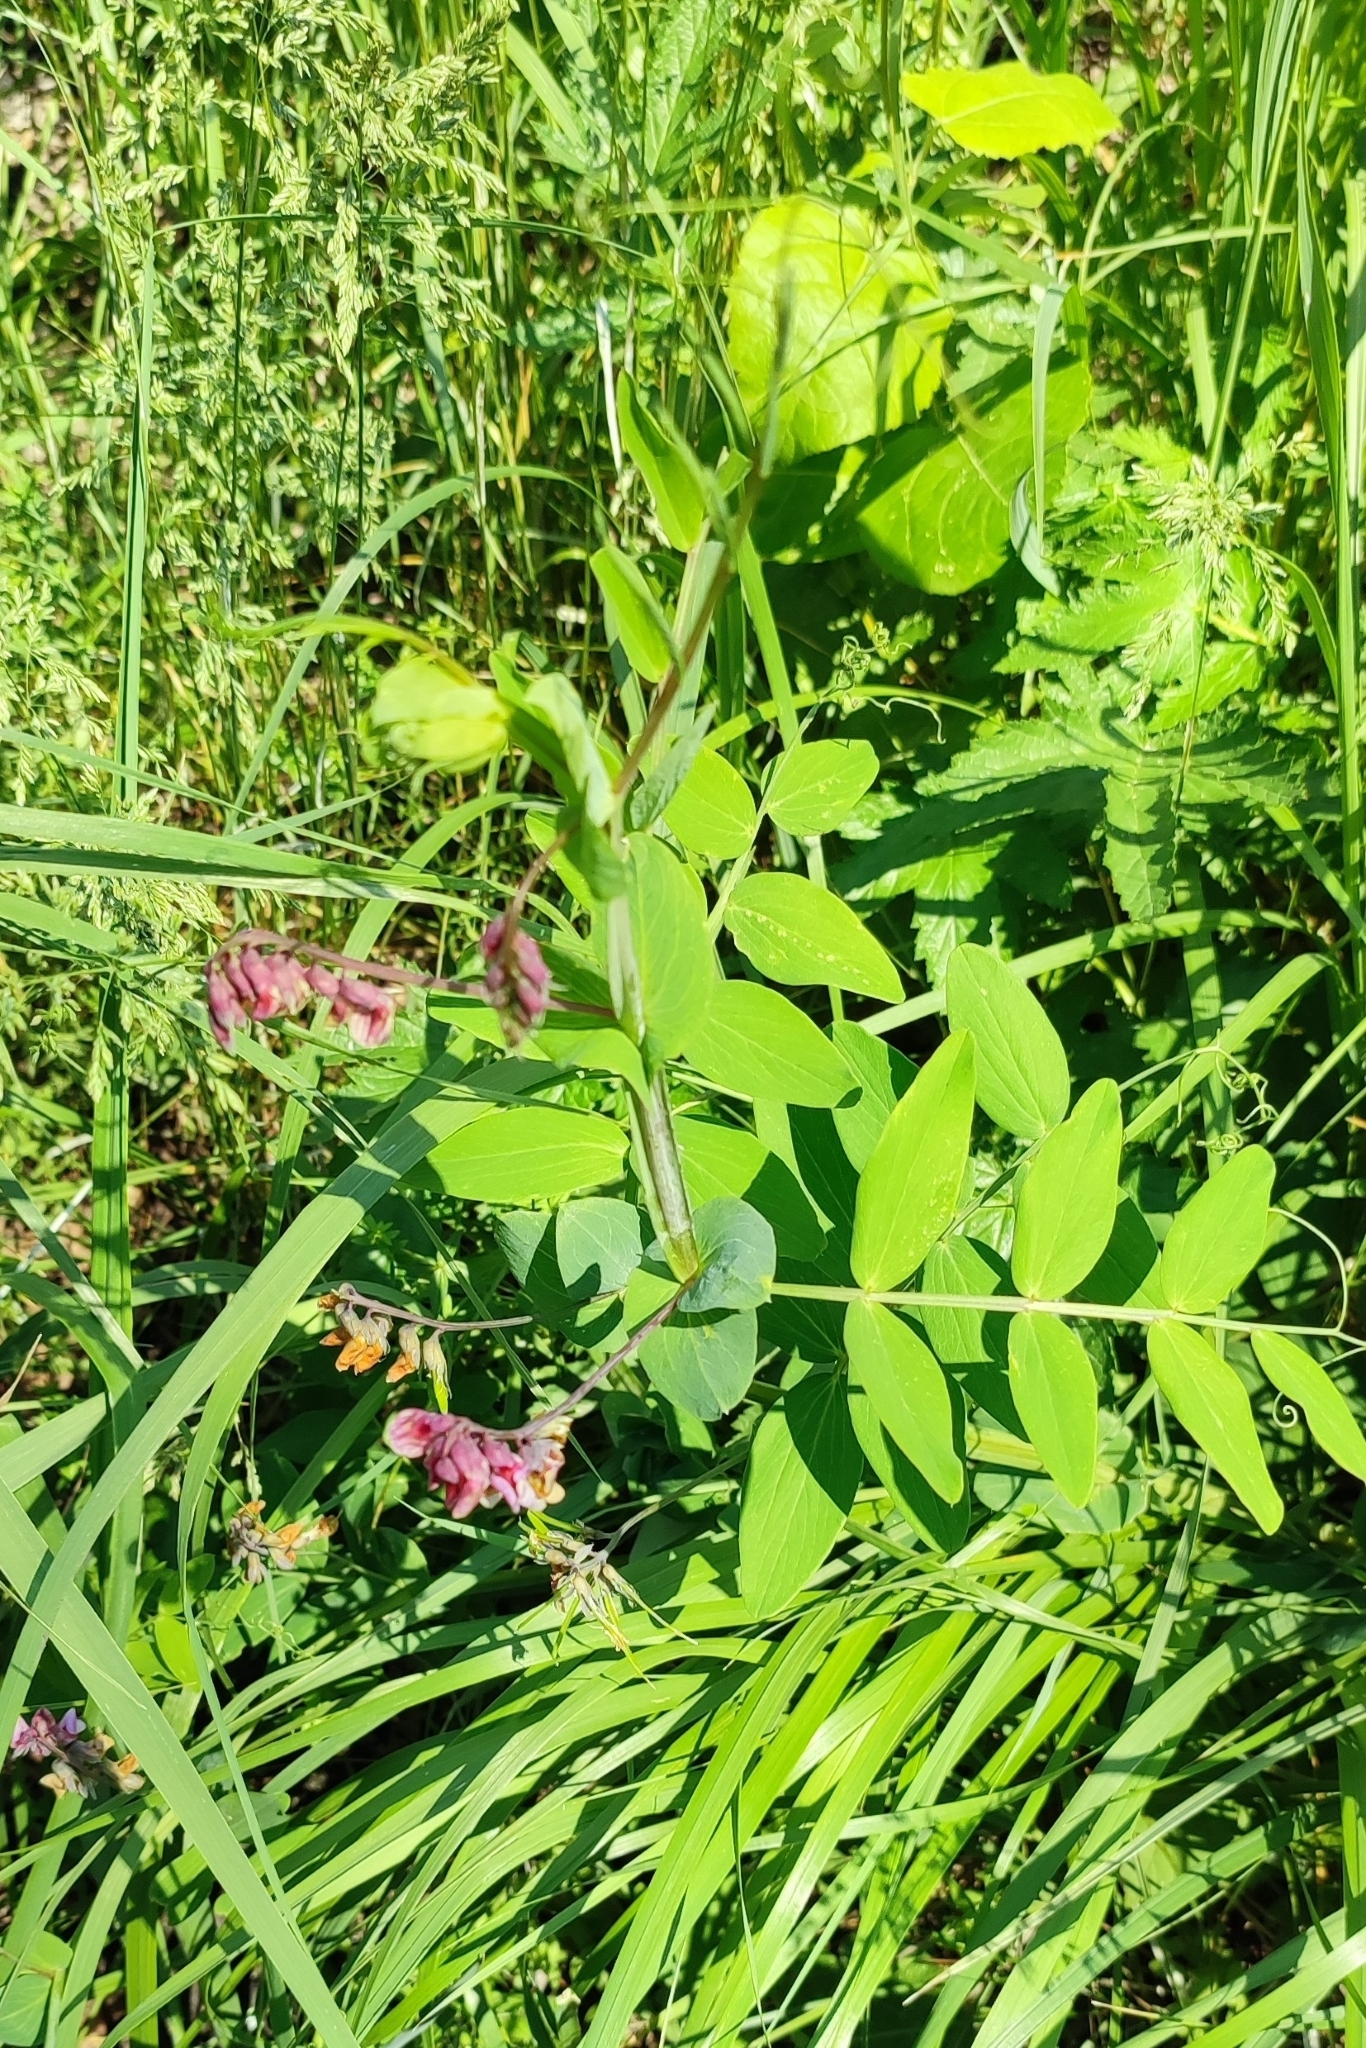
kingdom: Plantae
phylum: Tracheophyta
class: Magnoliopsida
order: Fabales
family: Fabaceae
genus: Lathyrus
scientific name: Lathyrus pisiformis
